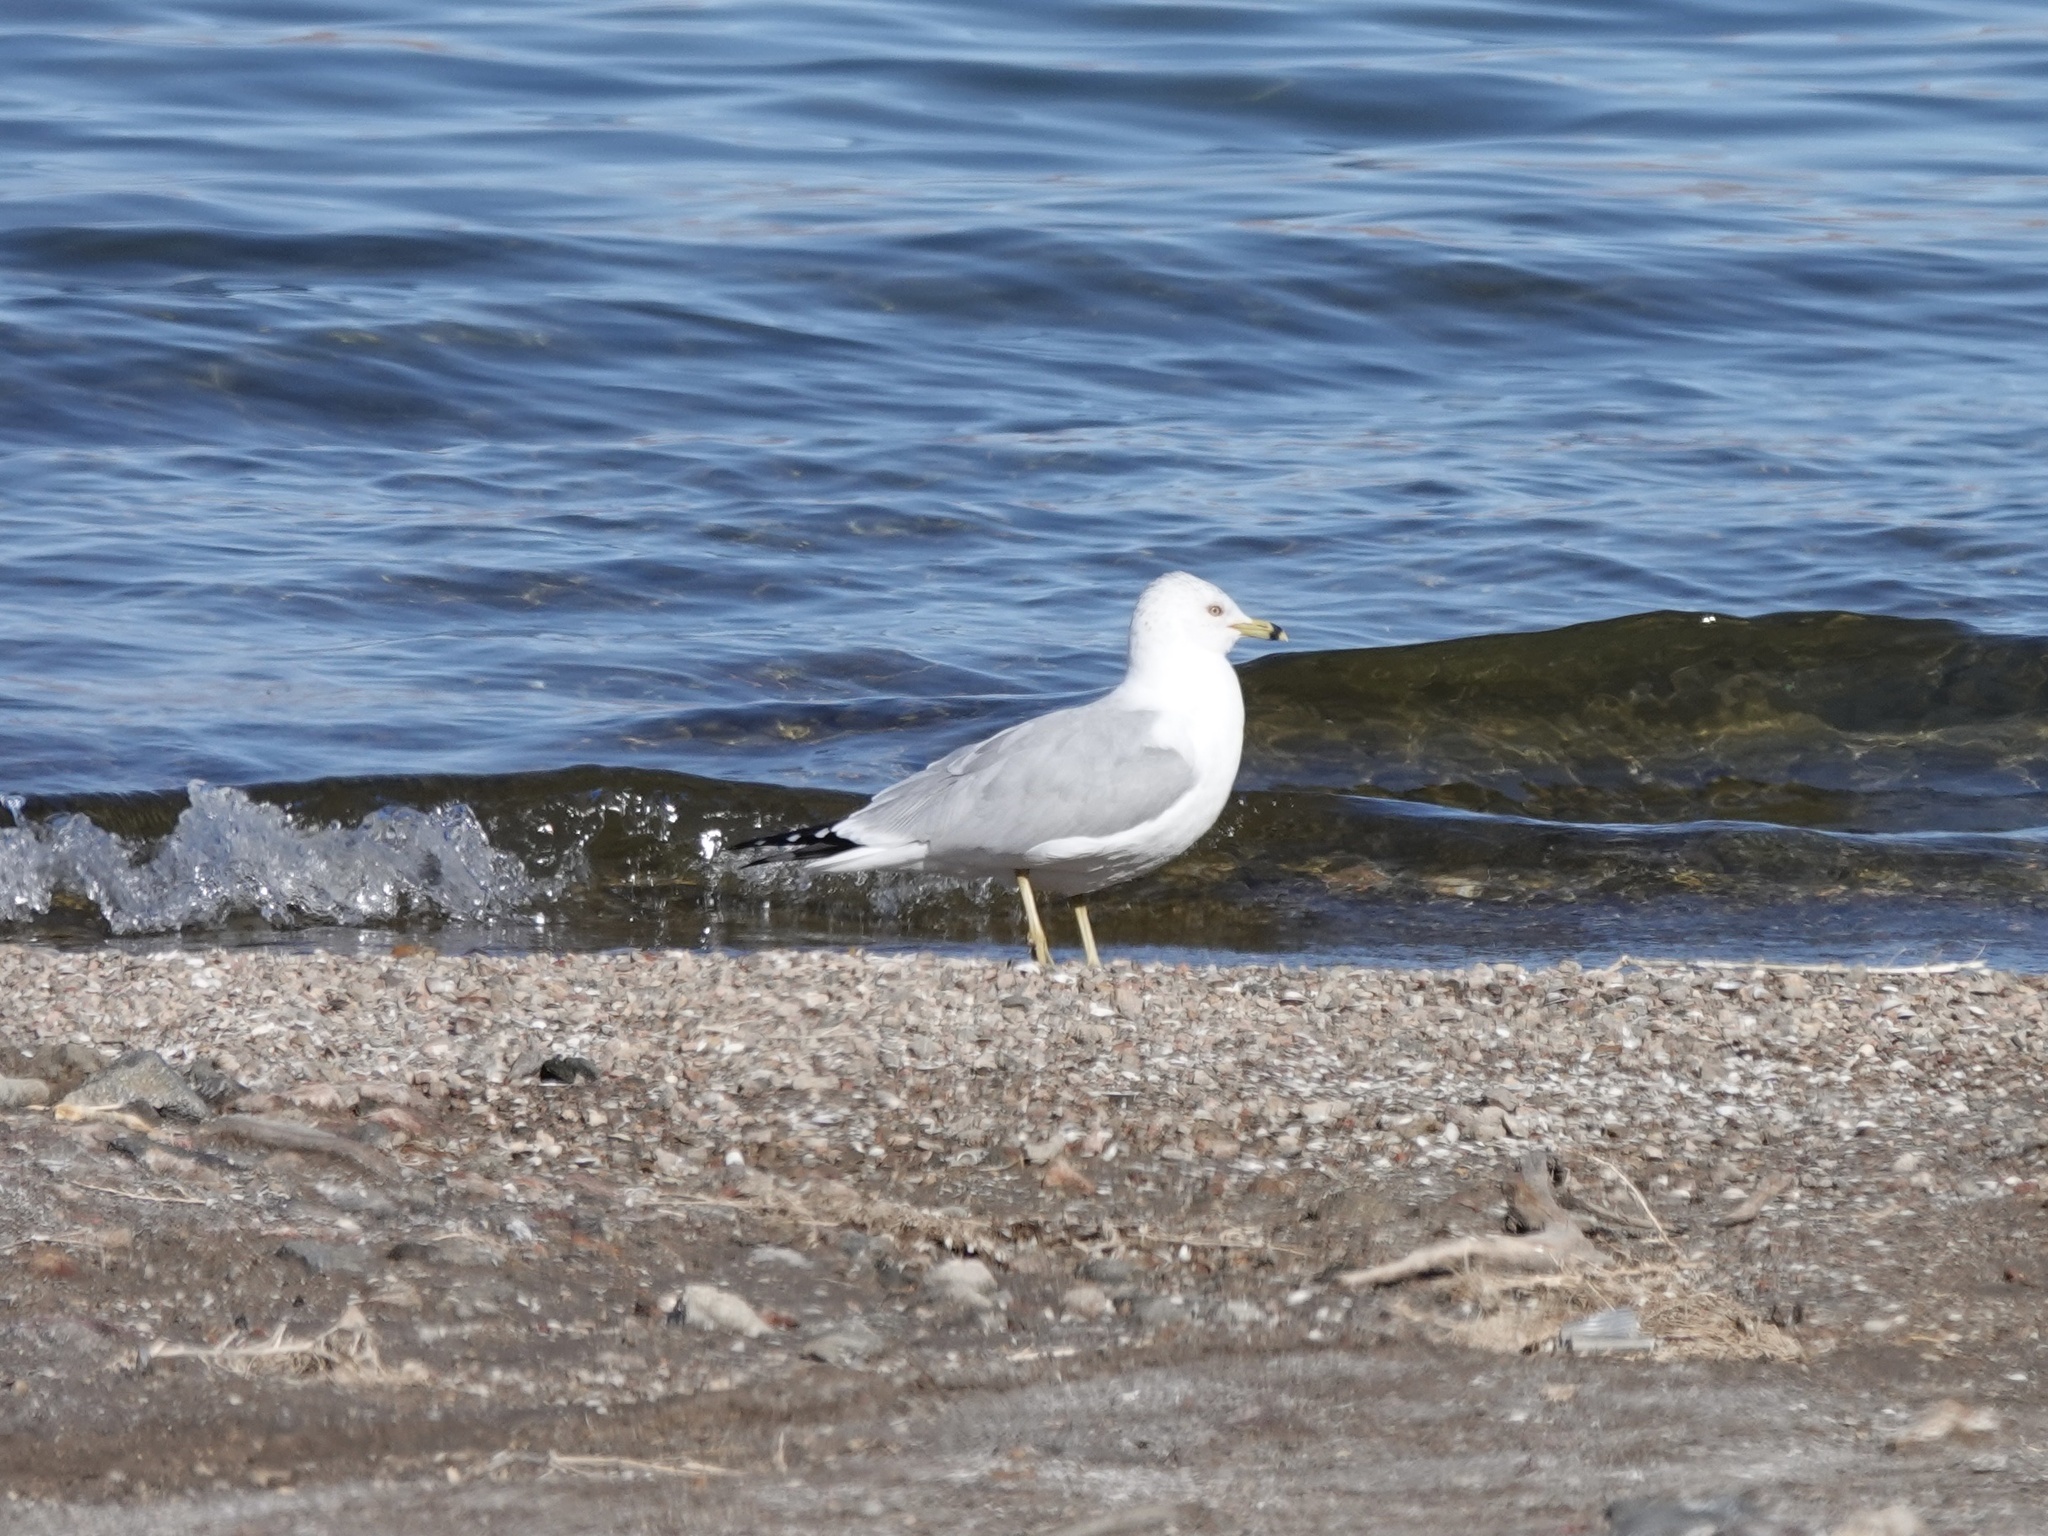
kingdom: Animalia
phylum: Chordata
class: Aves
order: Charadriiformes
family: Laridae
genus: Larus
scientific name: Larus delawarensis
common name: Ring-billed gull
